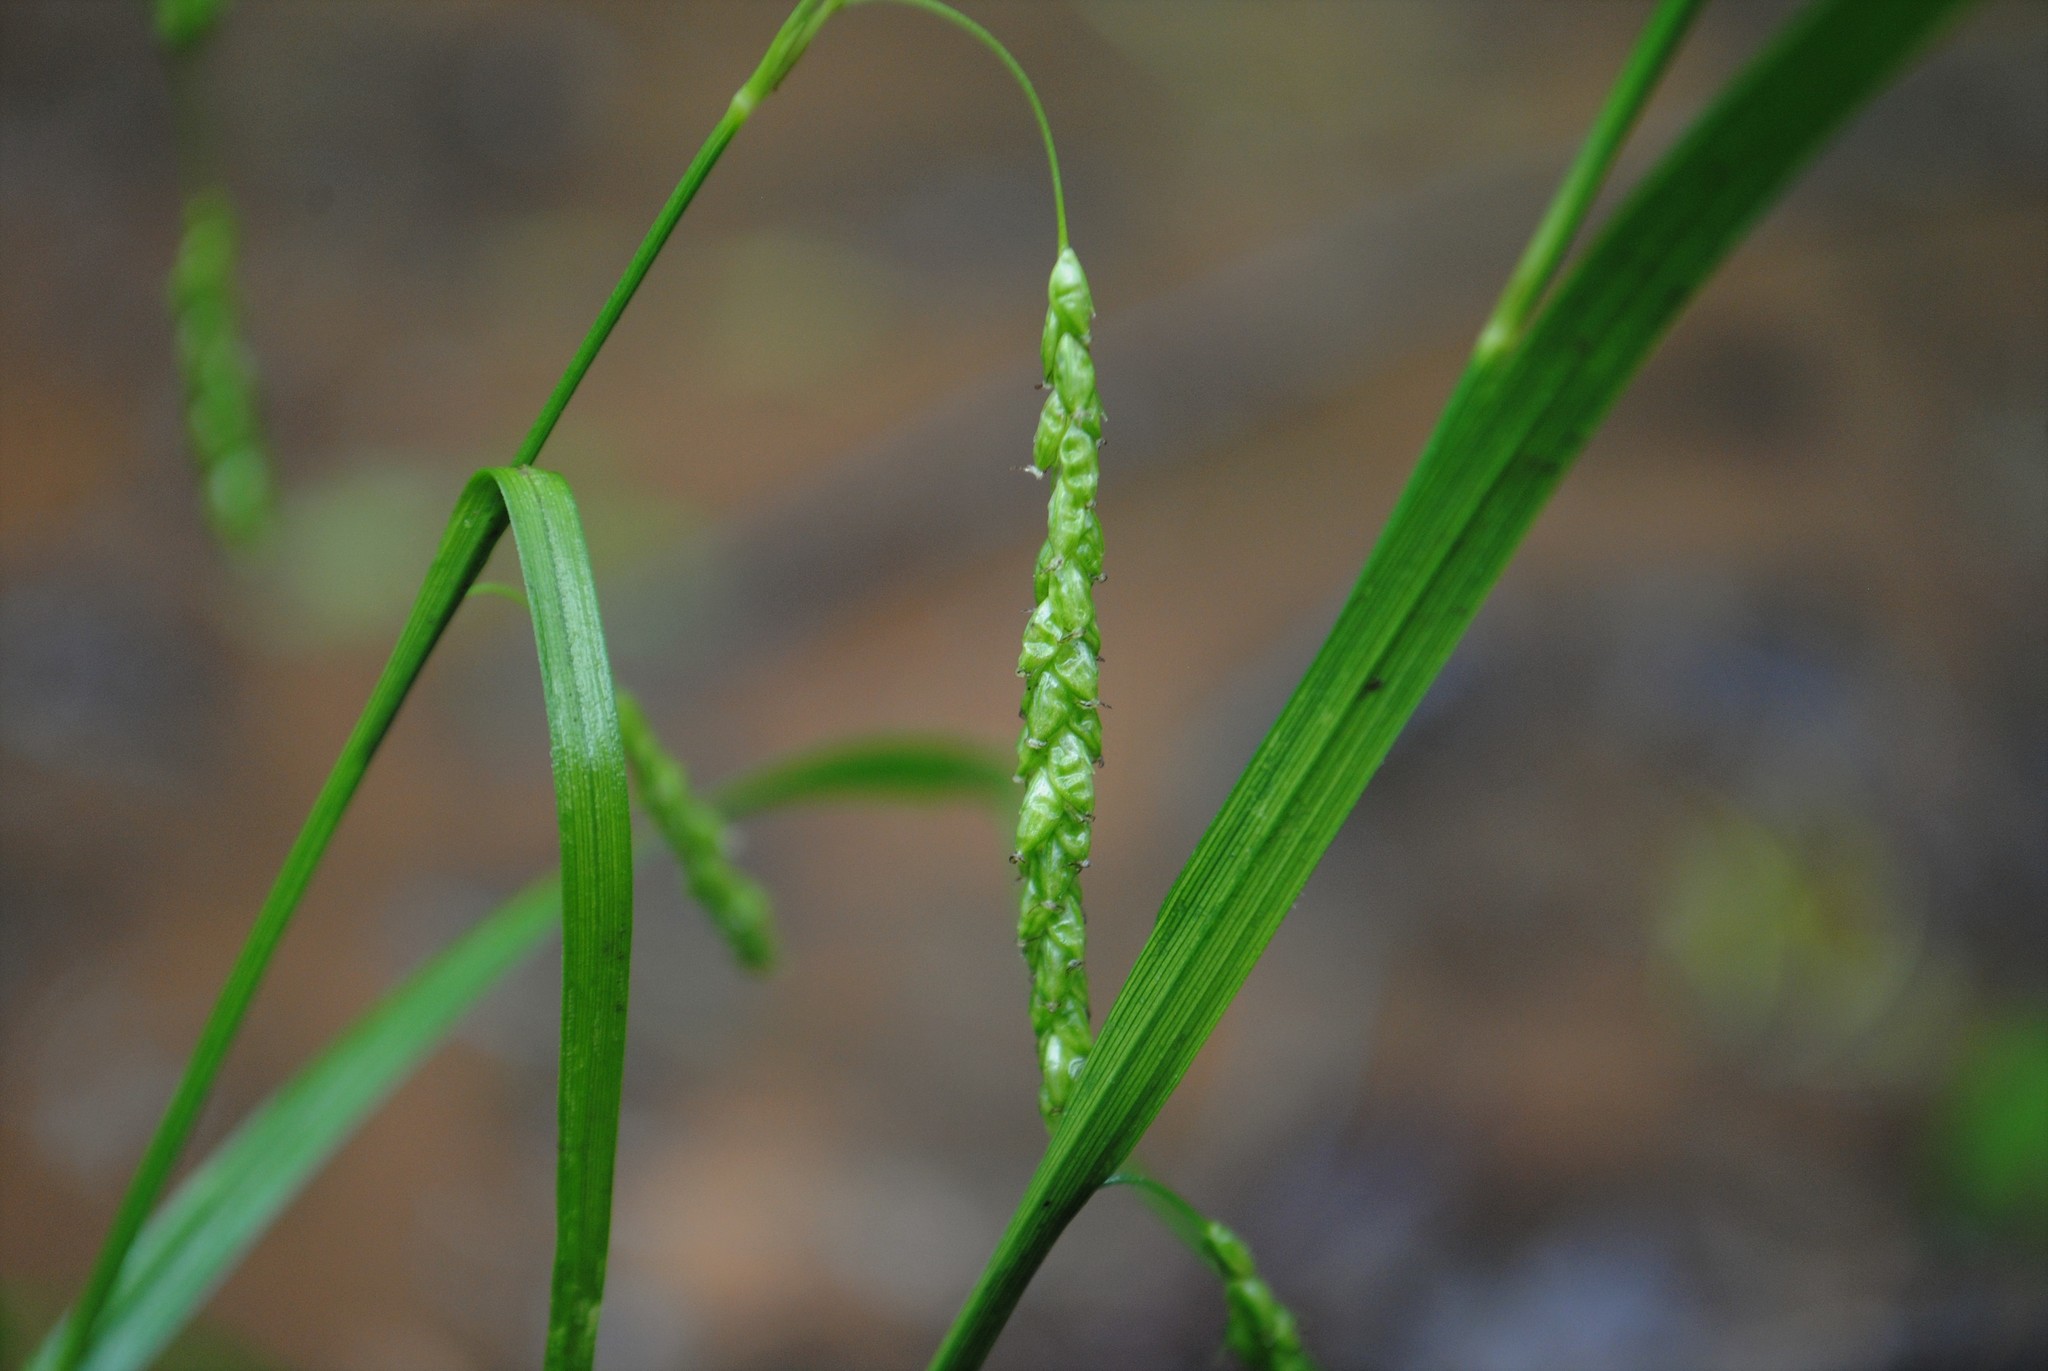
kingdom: Plantae
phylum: Tracheophyta
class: Liliopsida
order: Poales
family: Cyperaceae
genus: Carex
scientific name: Carex gracillima
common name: Graceful sedge
